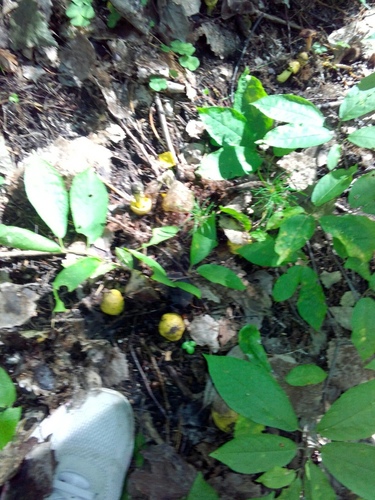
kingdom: Fungi
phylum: Basidiomycota
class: Agaricomycetes
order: Agaricales
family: Tricholomataceae
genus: Tricholoma
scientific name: Tricholoma equestre
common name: Yellow knight
